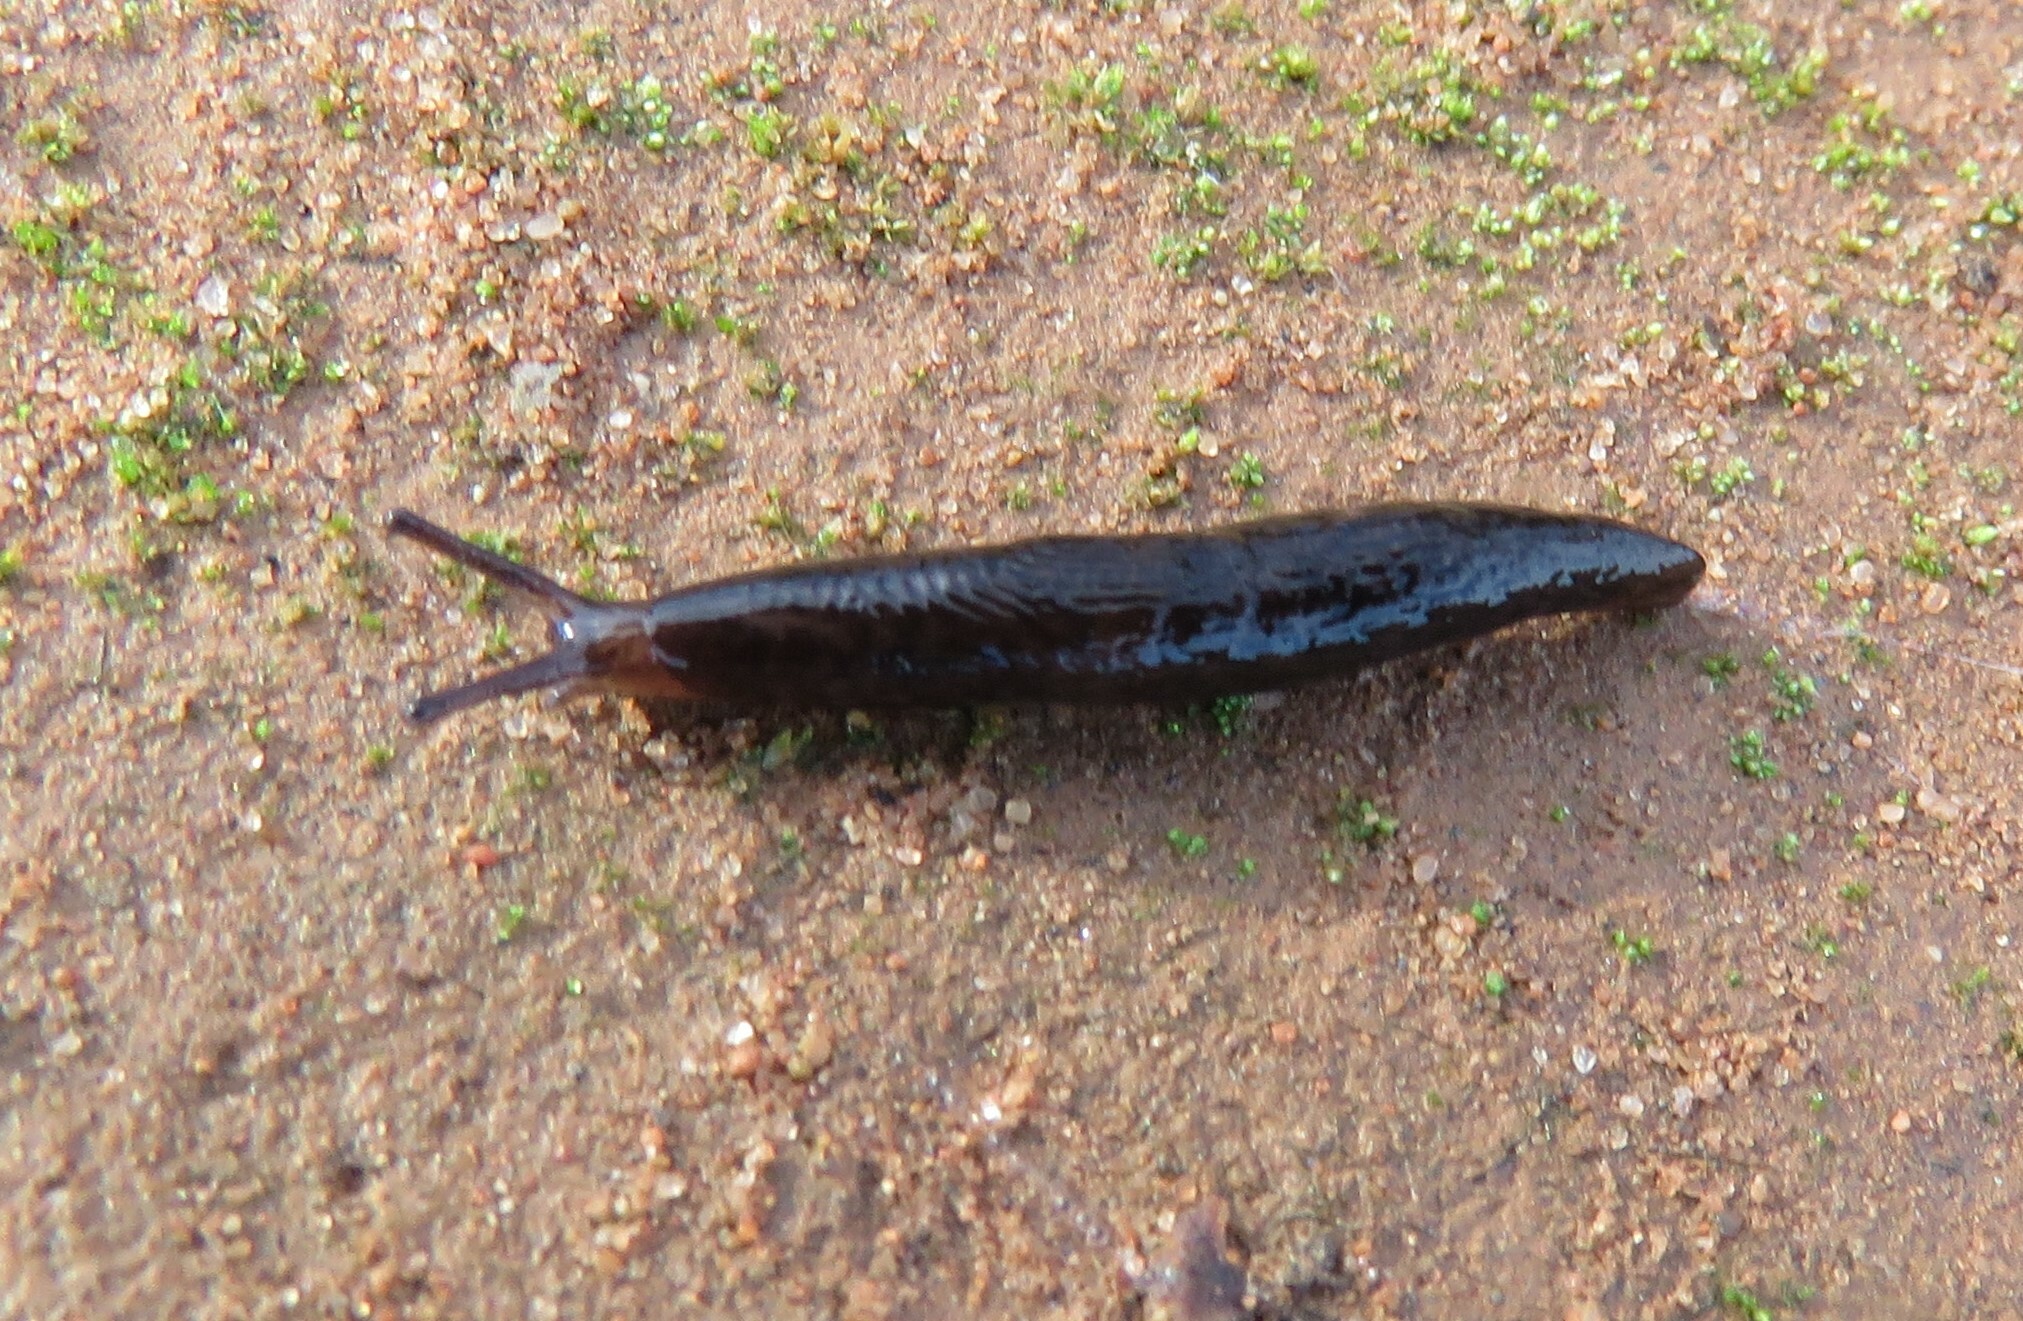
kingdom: Animalia
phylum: Mollusca
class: Gastropoda
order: Stylommatophora
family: Agriolimacidae
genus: Deroceras
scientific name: Deroceras laeve
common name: Marsh slug
